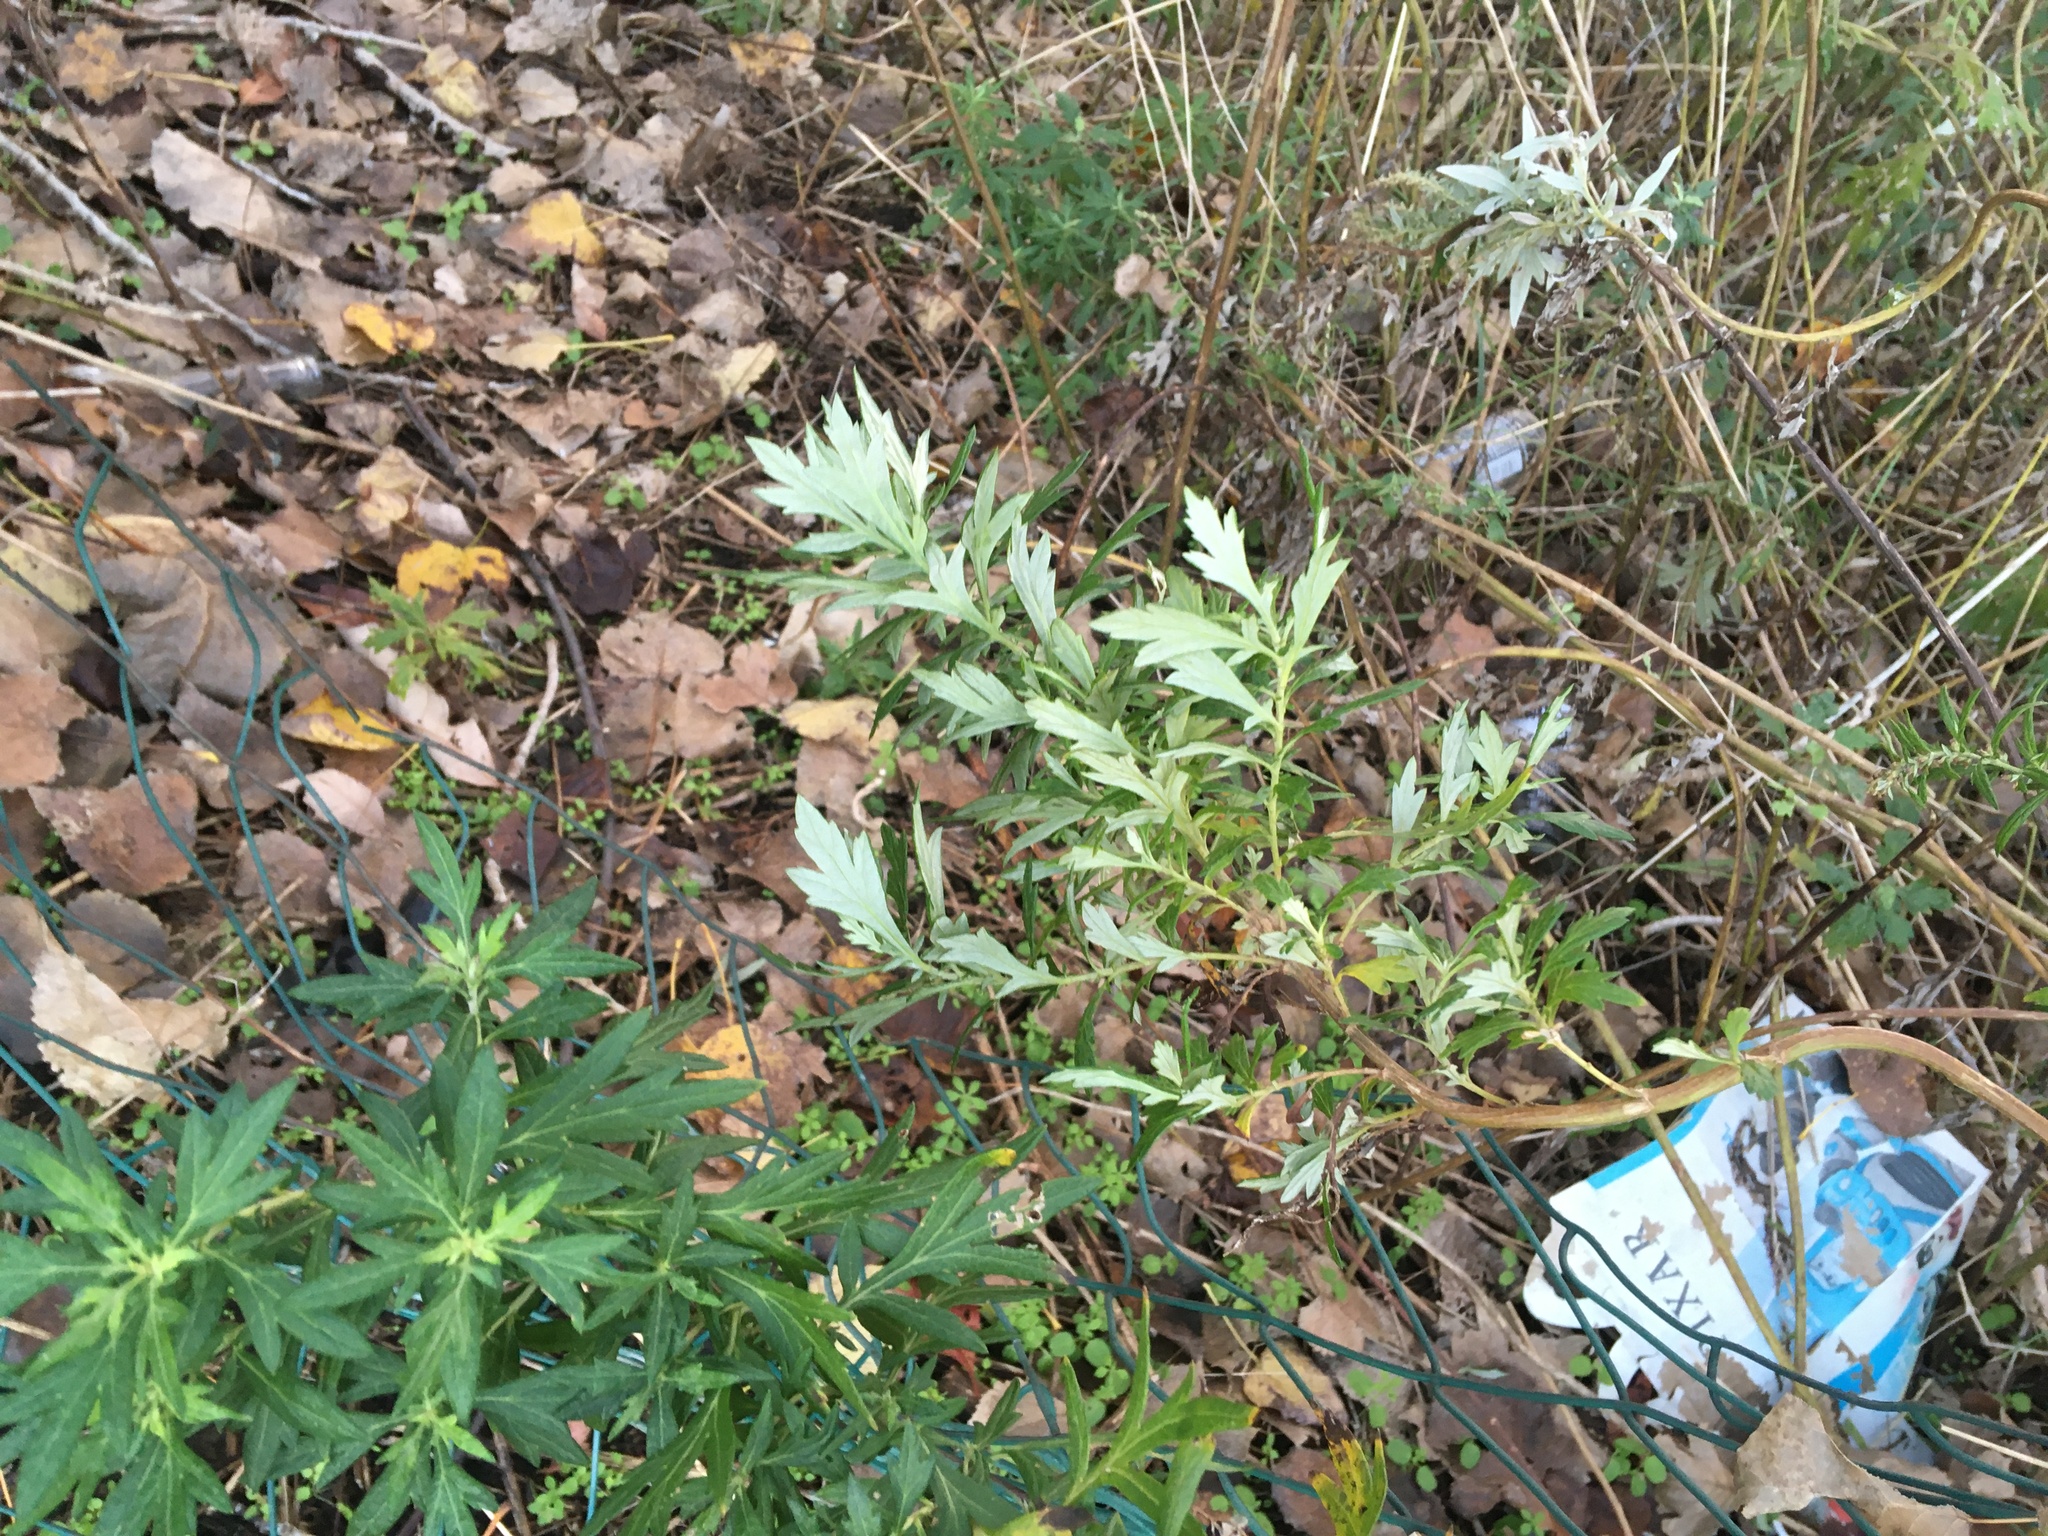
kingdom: Plantae
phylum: Tracheophyta
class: Magnoliopsida
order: Asterales
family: Asteraceae
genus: Artemisia
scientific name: Artemisia vulgaris
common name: Mugwort
